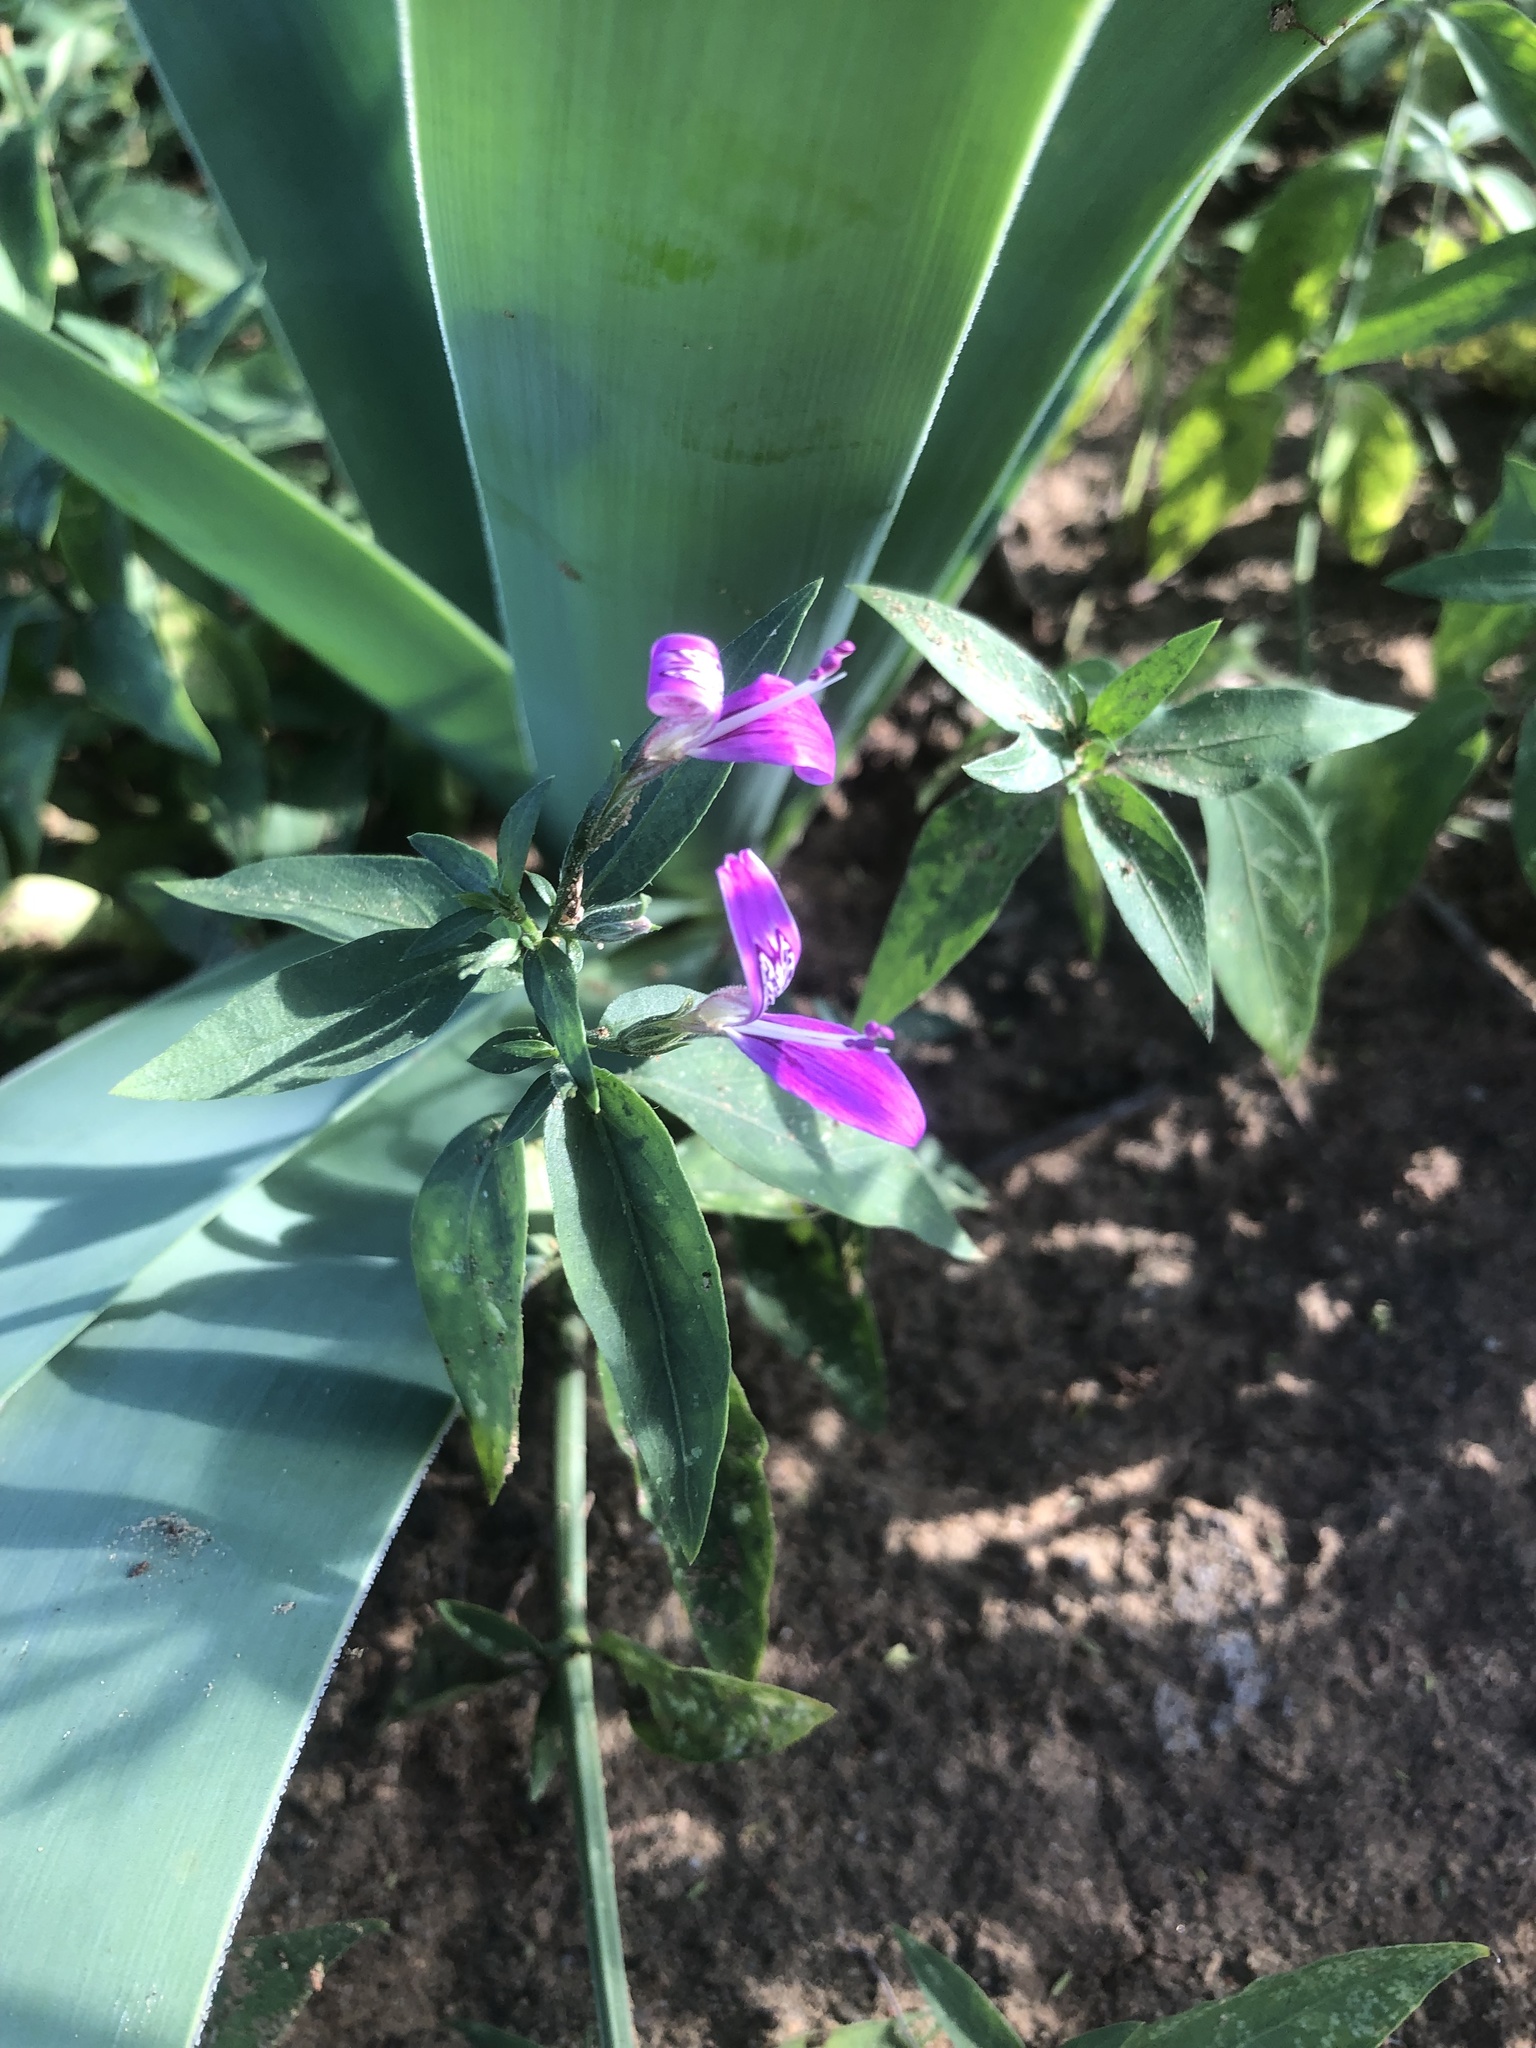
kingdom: Plantae
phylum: Tracheophyta
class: Magnoliopsida
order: Lamiales
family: Acanthaceae
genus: Dicliptera
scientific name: Dicliptera cernua
